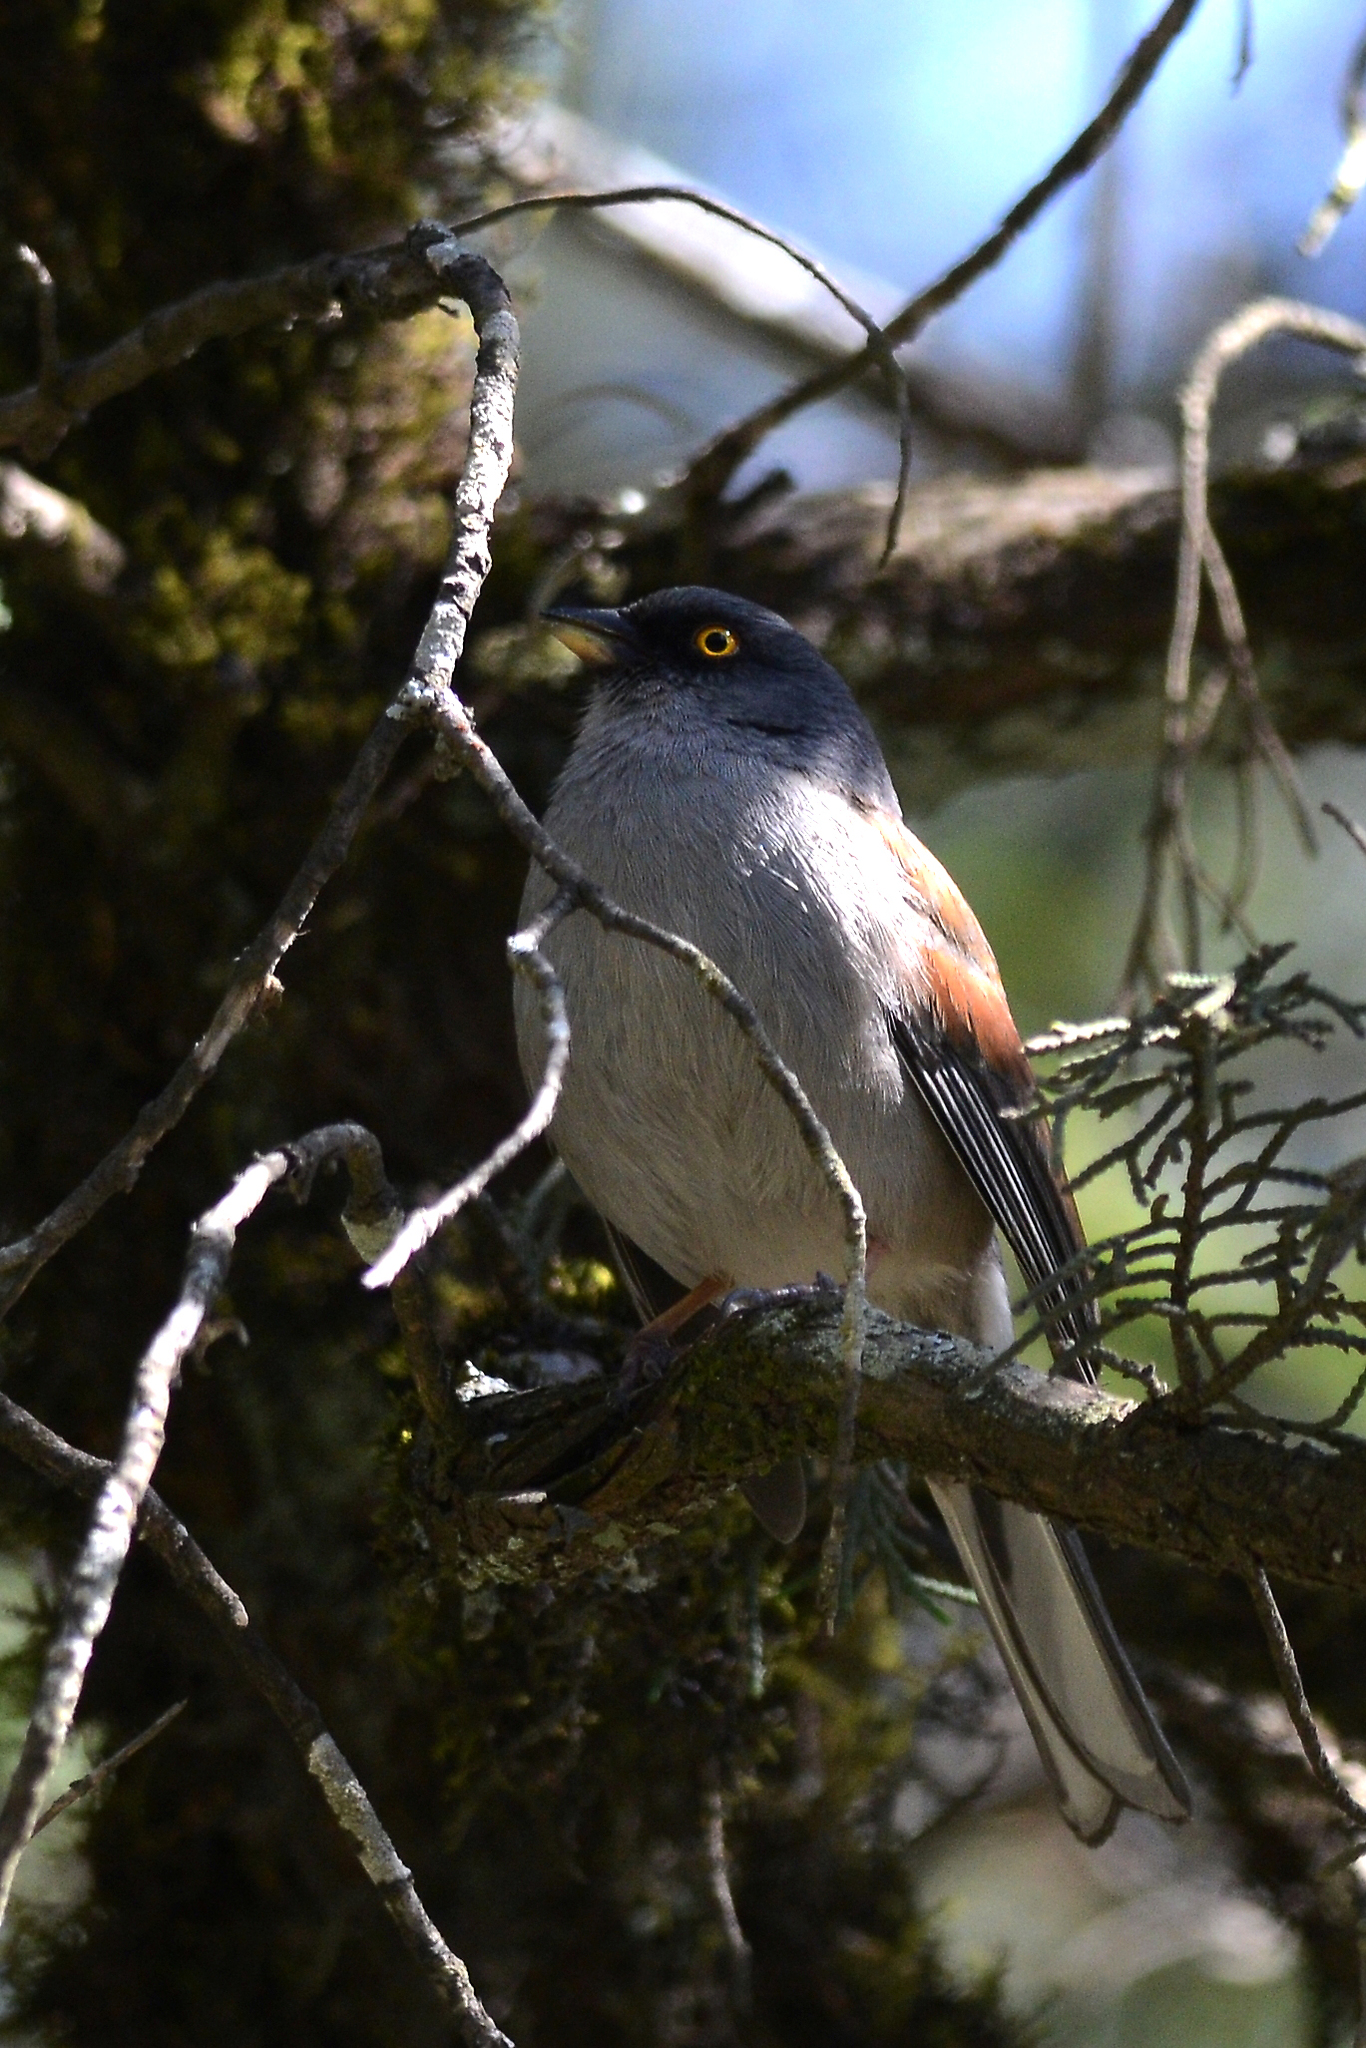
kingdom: Animalia
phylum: Chordata
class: Aves
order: Passeriformes
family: Passerellidae
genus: Junco
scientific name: Junco phaeonotus
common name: Yellow-eyed junco
